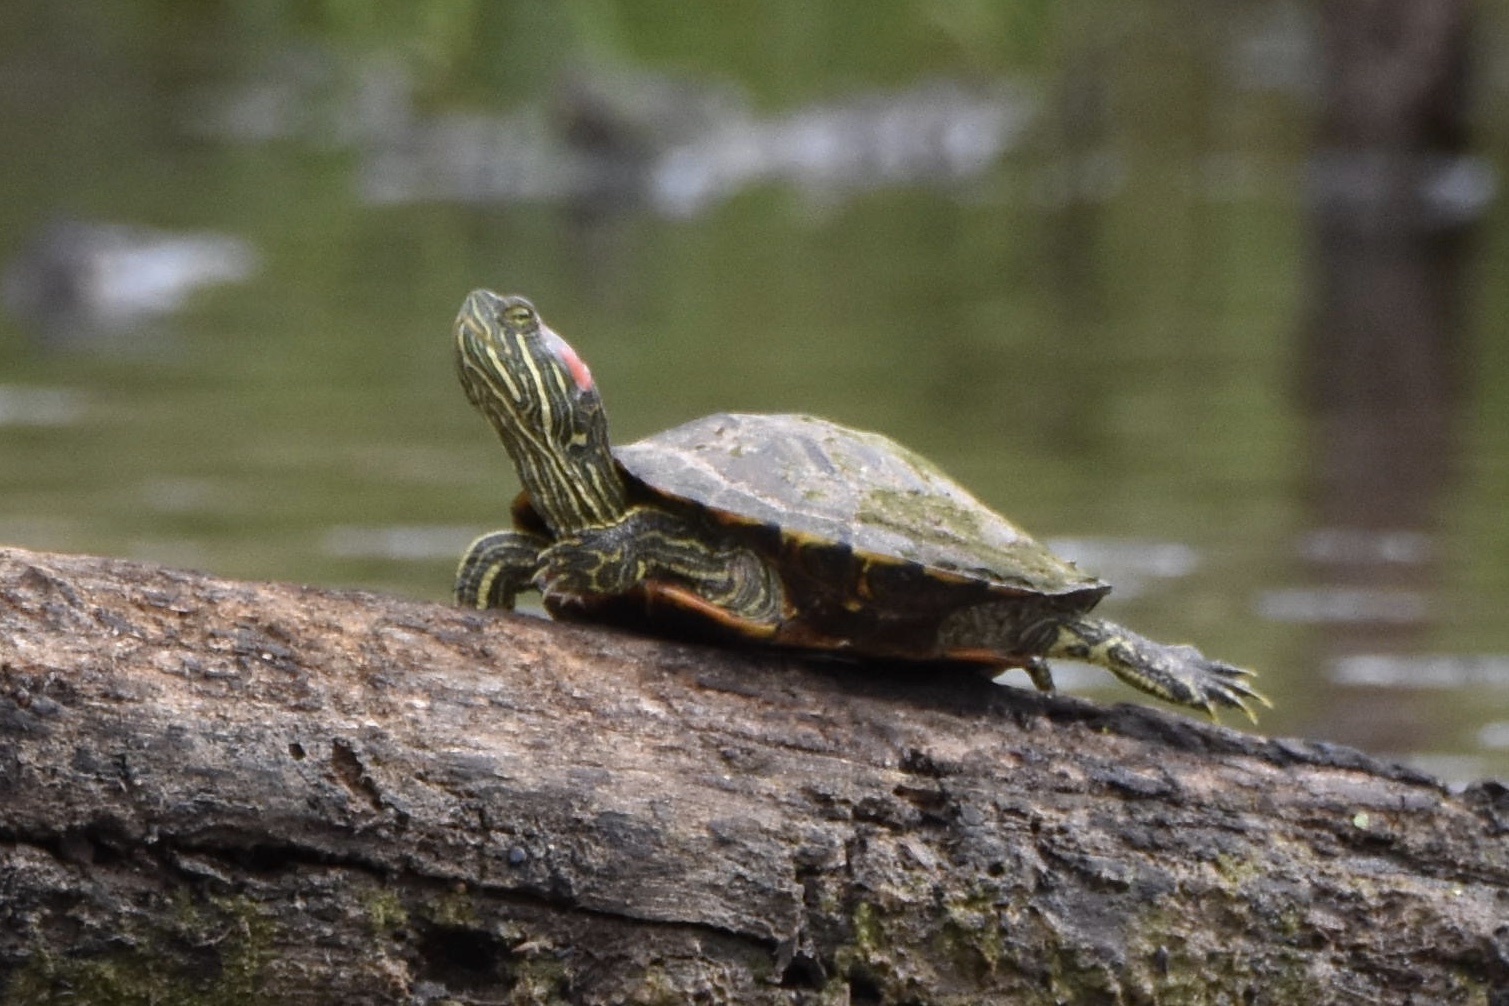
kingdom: Animalia
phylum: Chordata
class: Testudines
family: Emydidae
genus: Trachemys
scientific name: Trachemys scripta
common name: Slider
